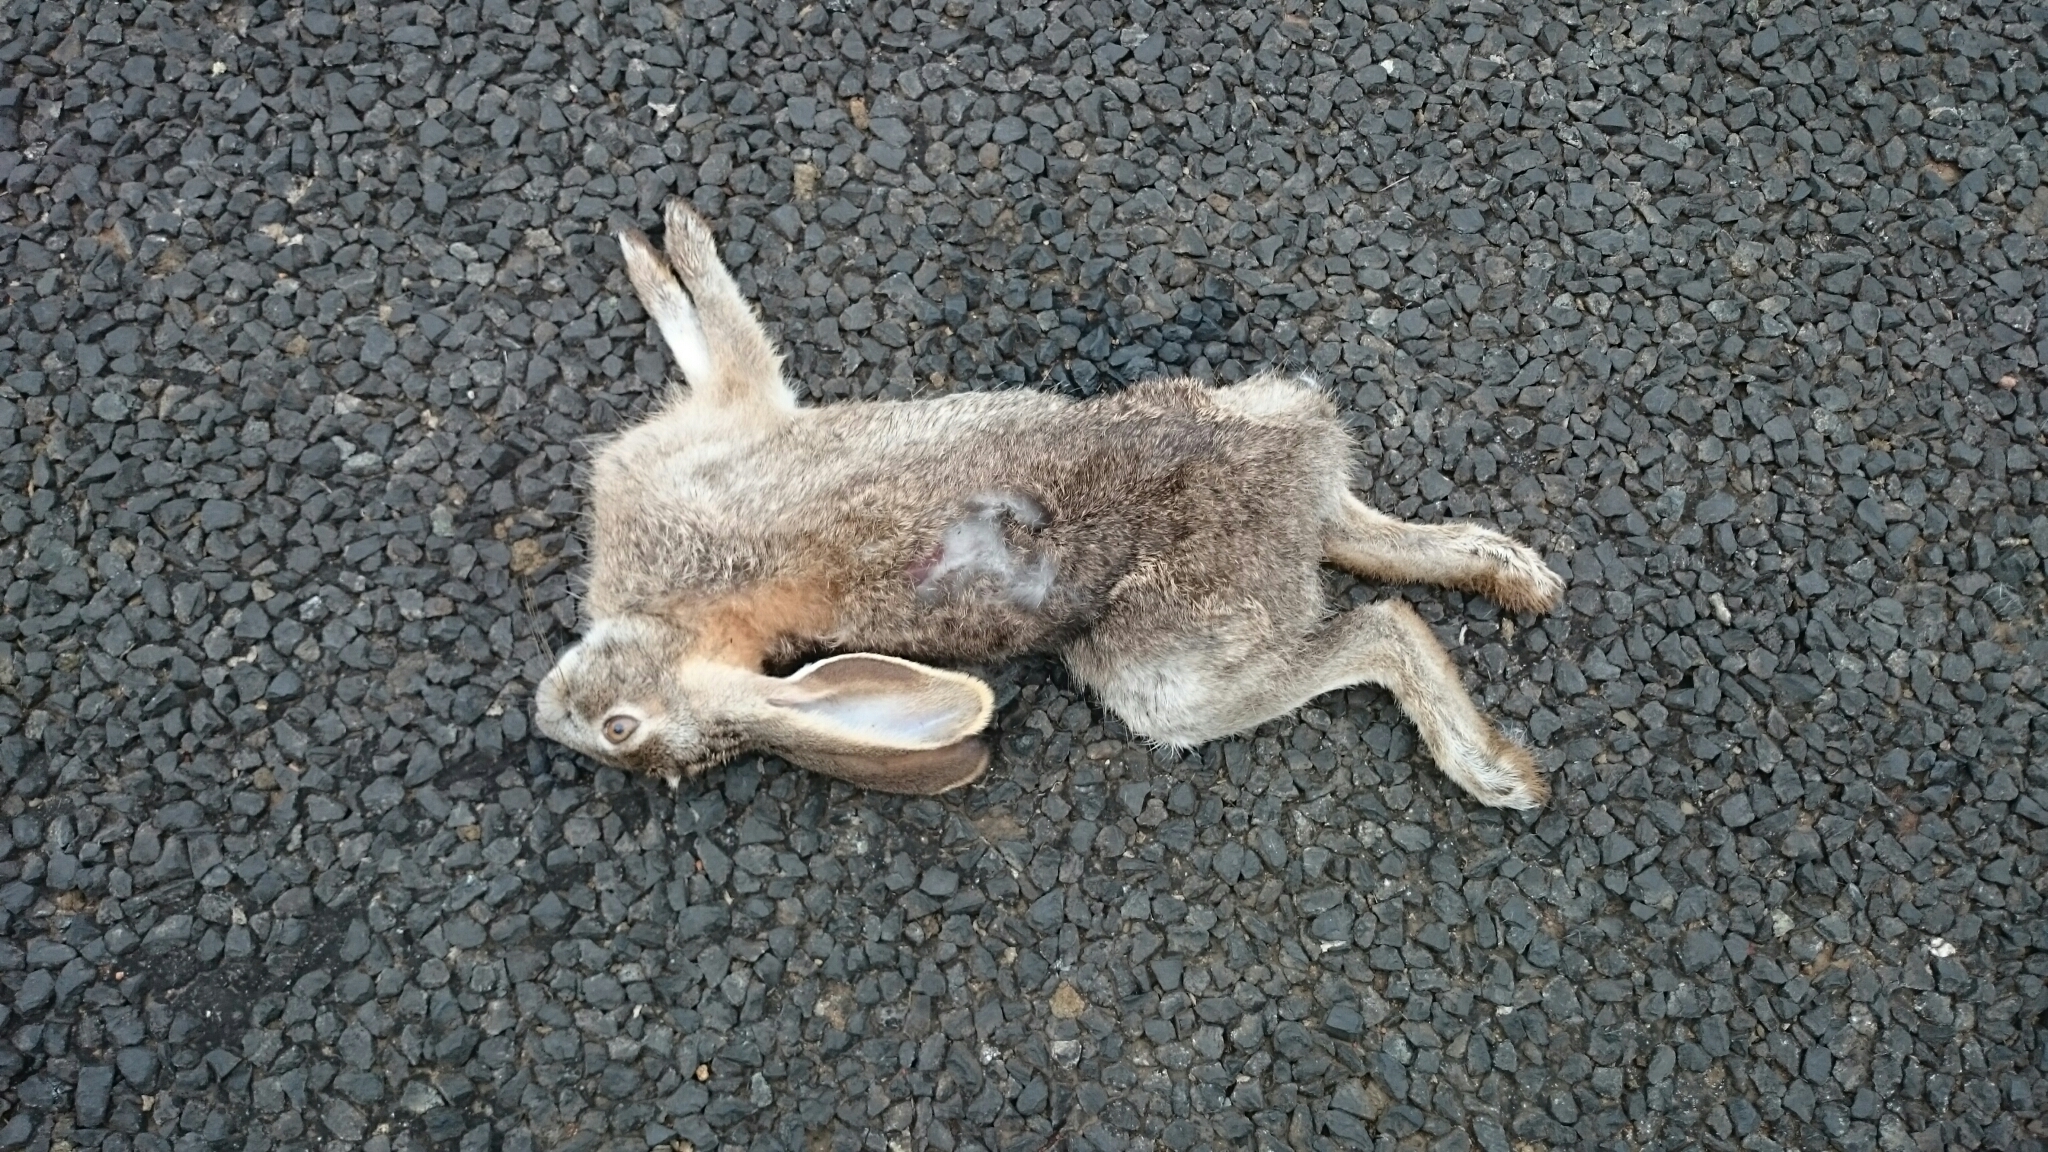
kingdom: Animalia
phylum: Chordata
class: Mammalia
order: Lagomorpha
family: Leporidae
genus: Lepus
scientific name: Lepus saxatilis
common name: Scrub hare
